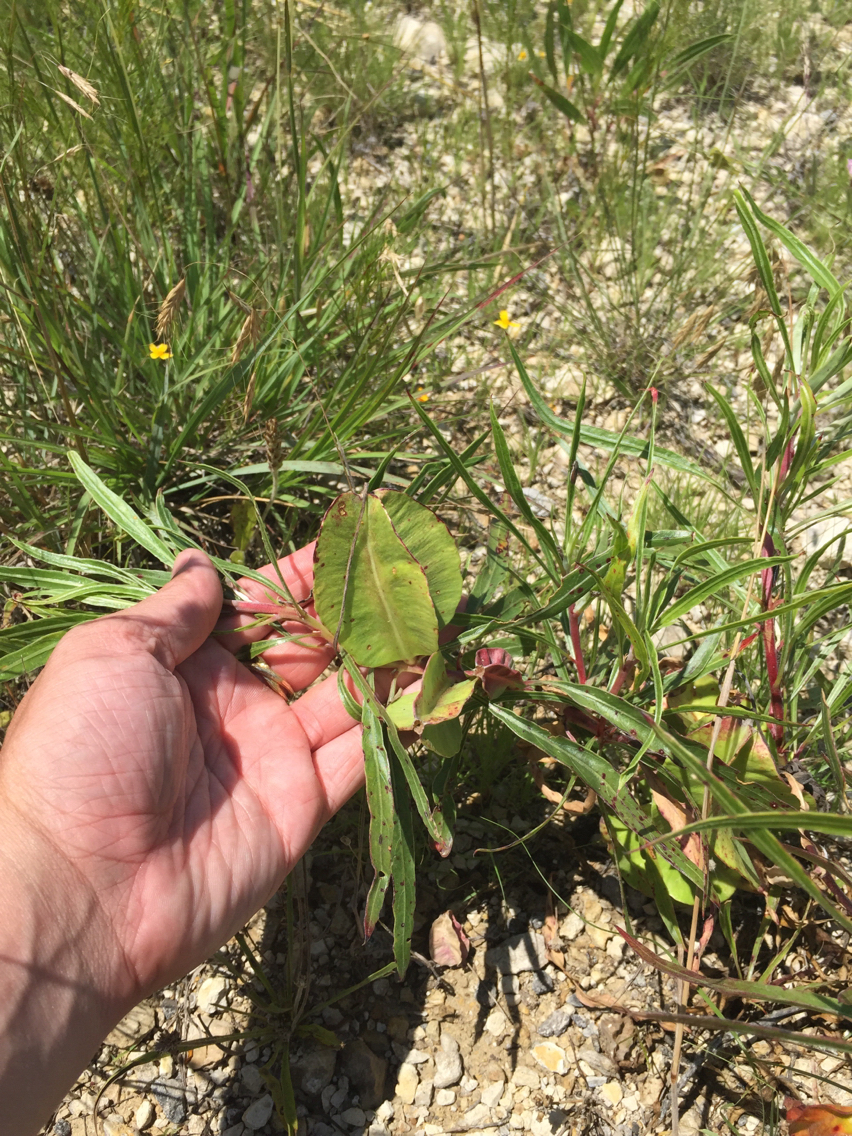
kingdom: Plantae
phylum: Tracheophyta
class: Magnoliopsida
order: Myrtales
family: Onagraceae
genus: Oenothera
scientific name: Oenothera macrocarpa
